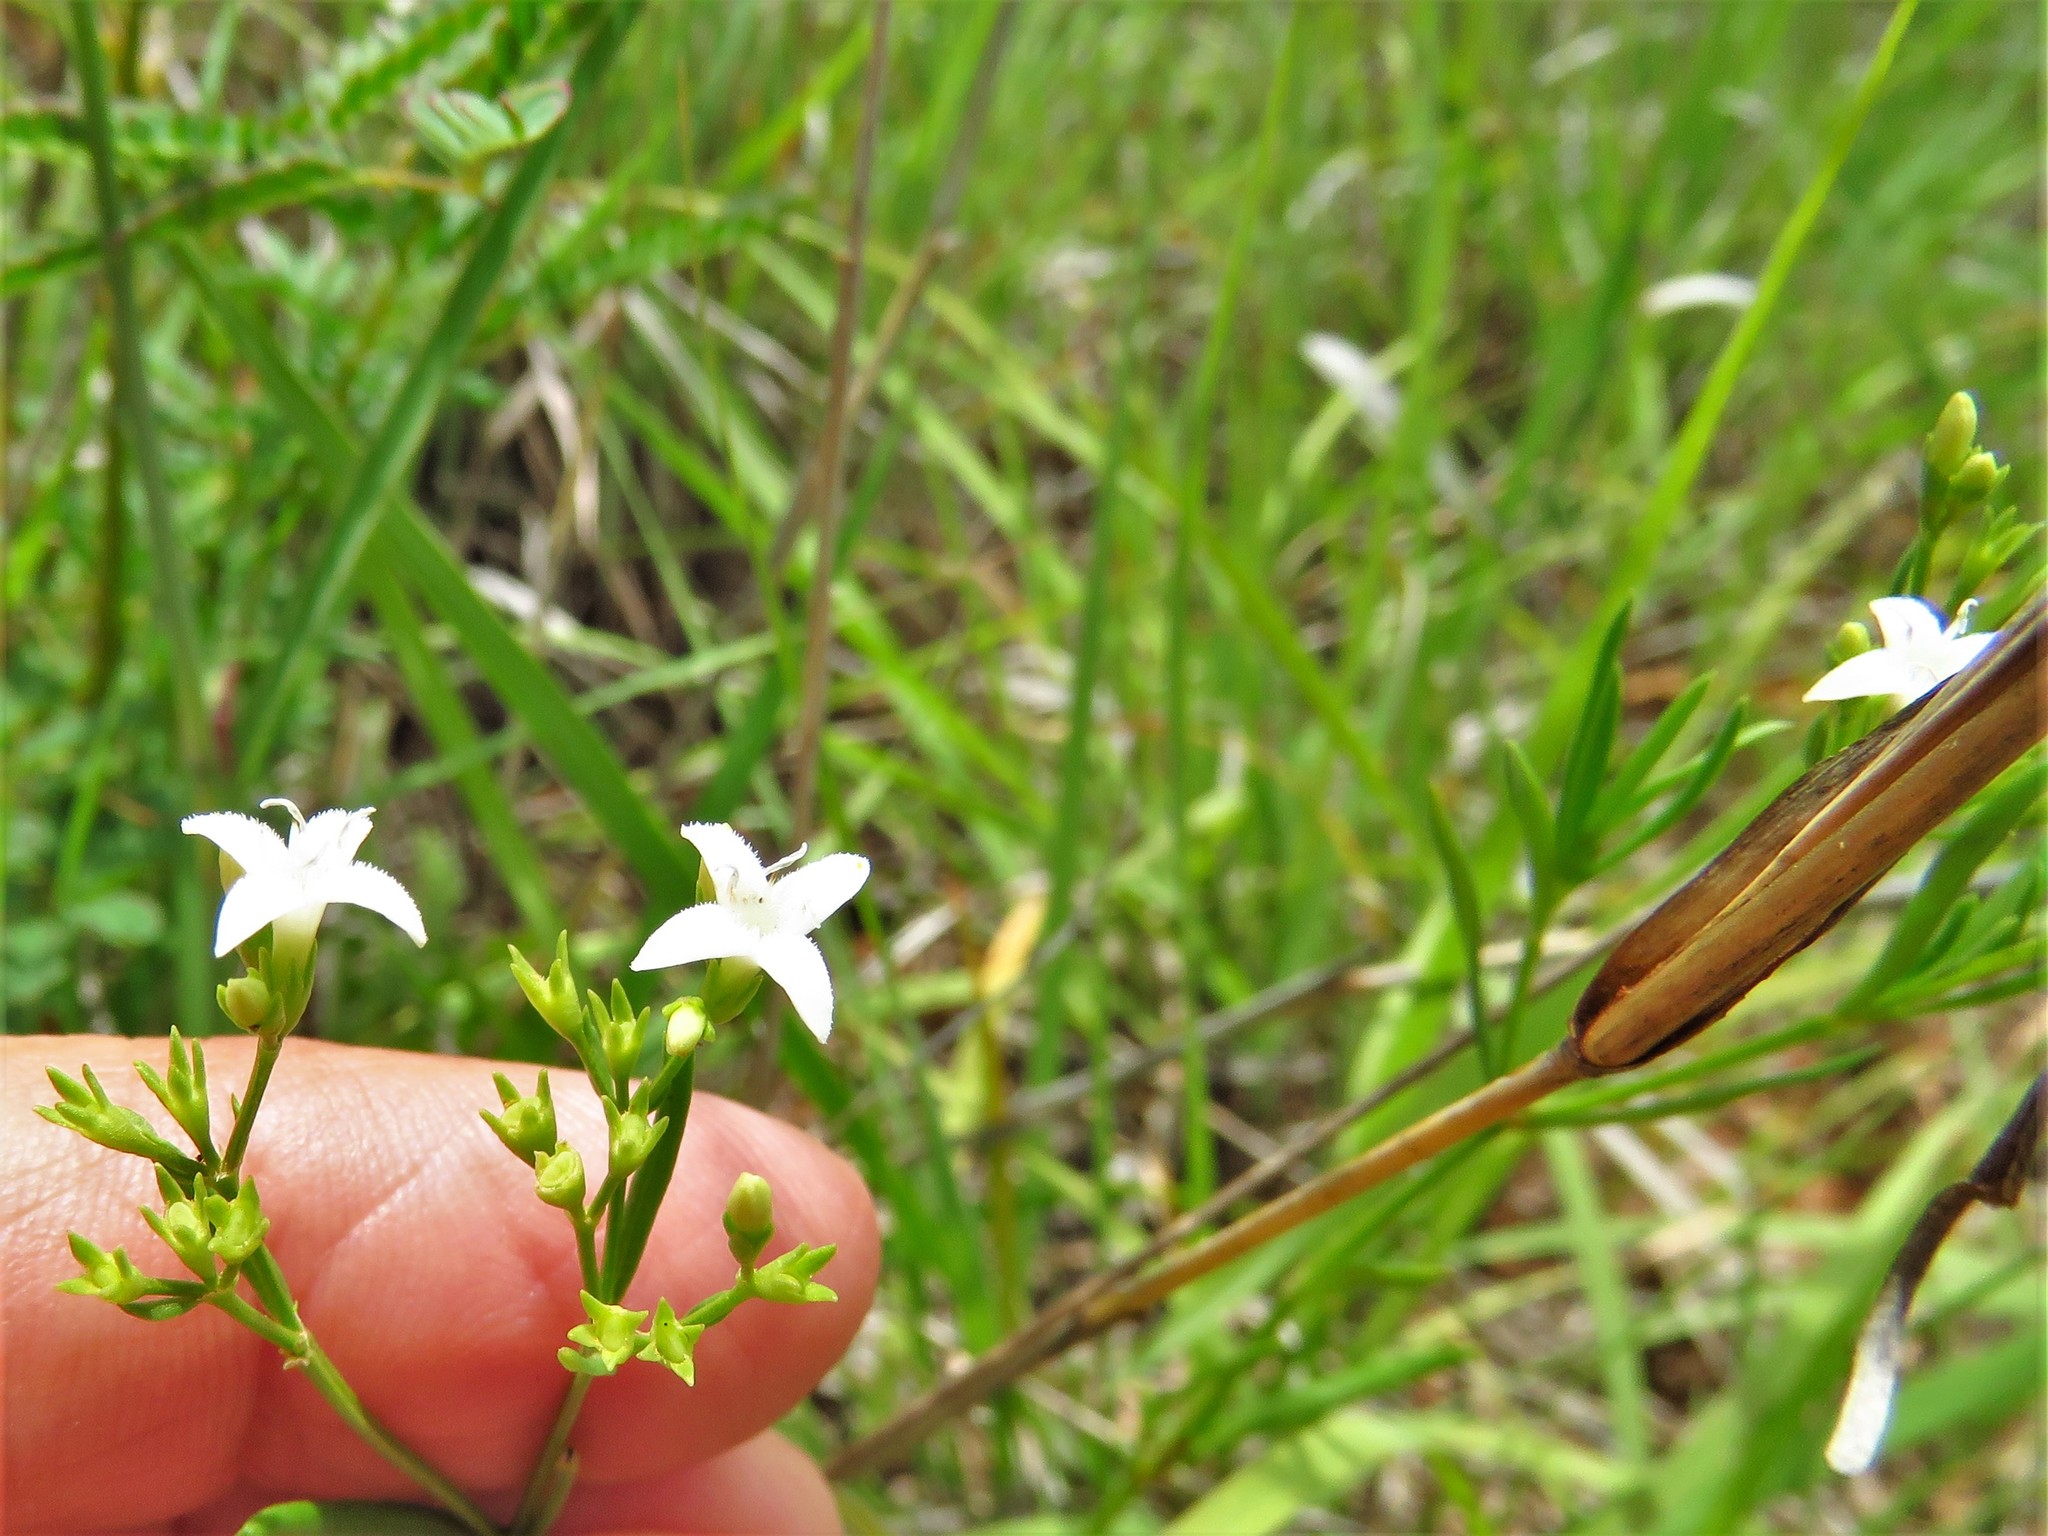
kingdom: Plantae
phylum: Tracheophyta
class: Magnoliopsida
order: Gentianales
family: Rubiaceae
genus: Stenaria
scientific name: Stenaria nigricans
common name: Diamondflowers
